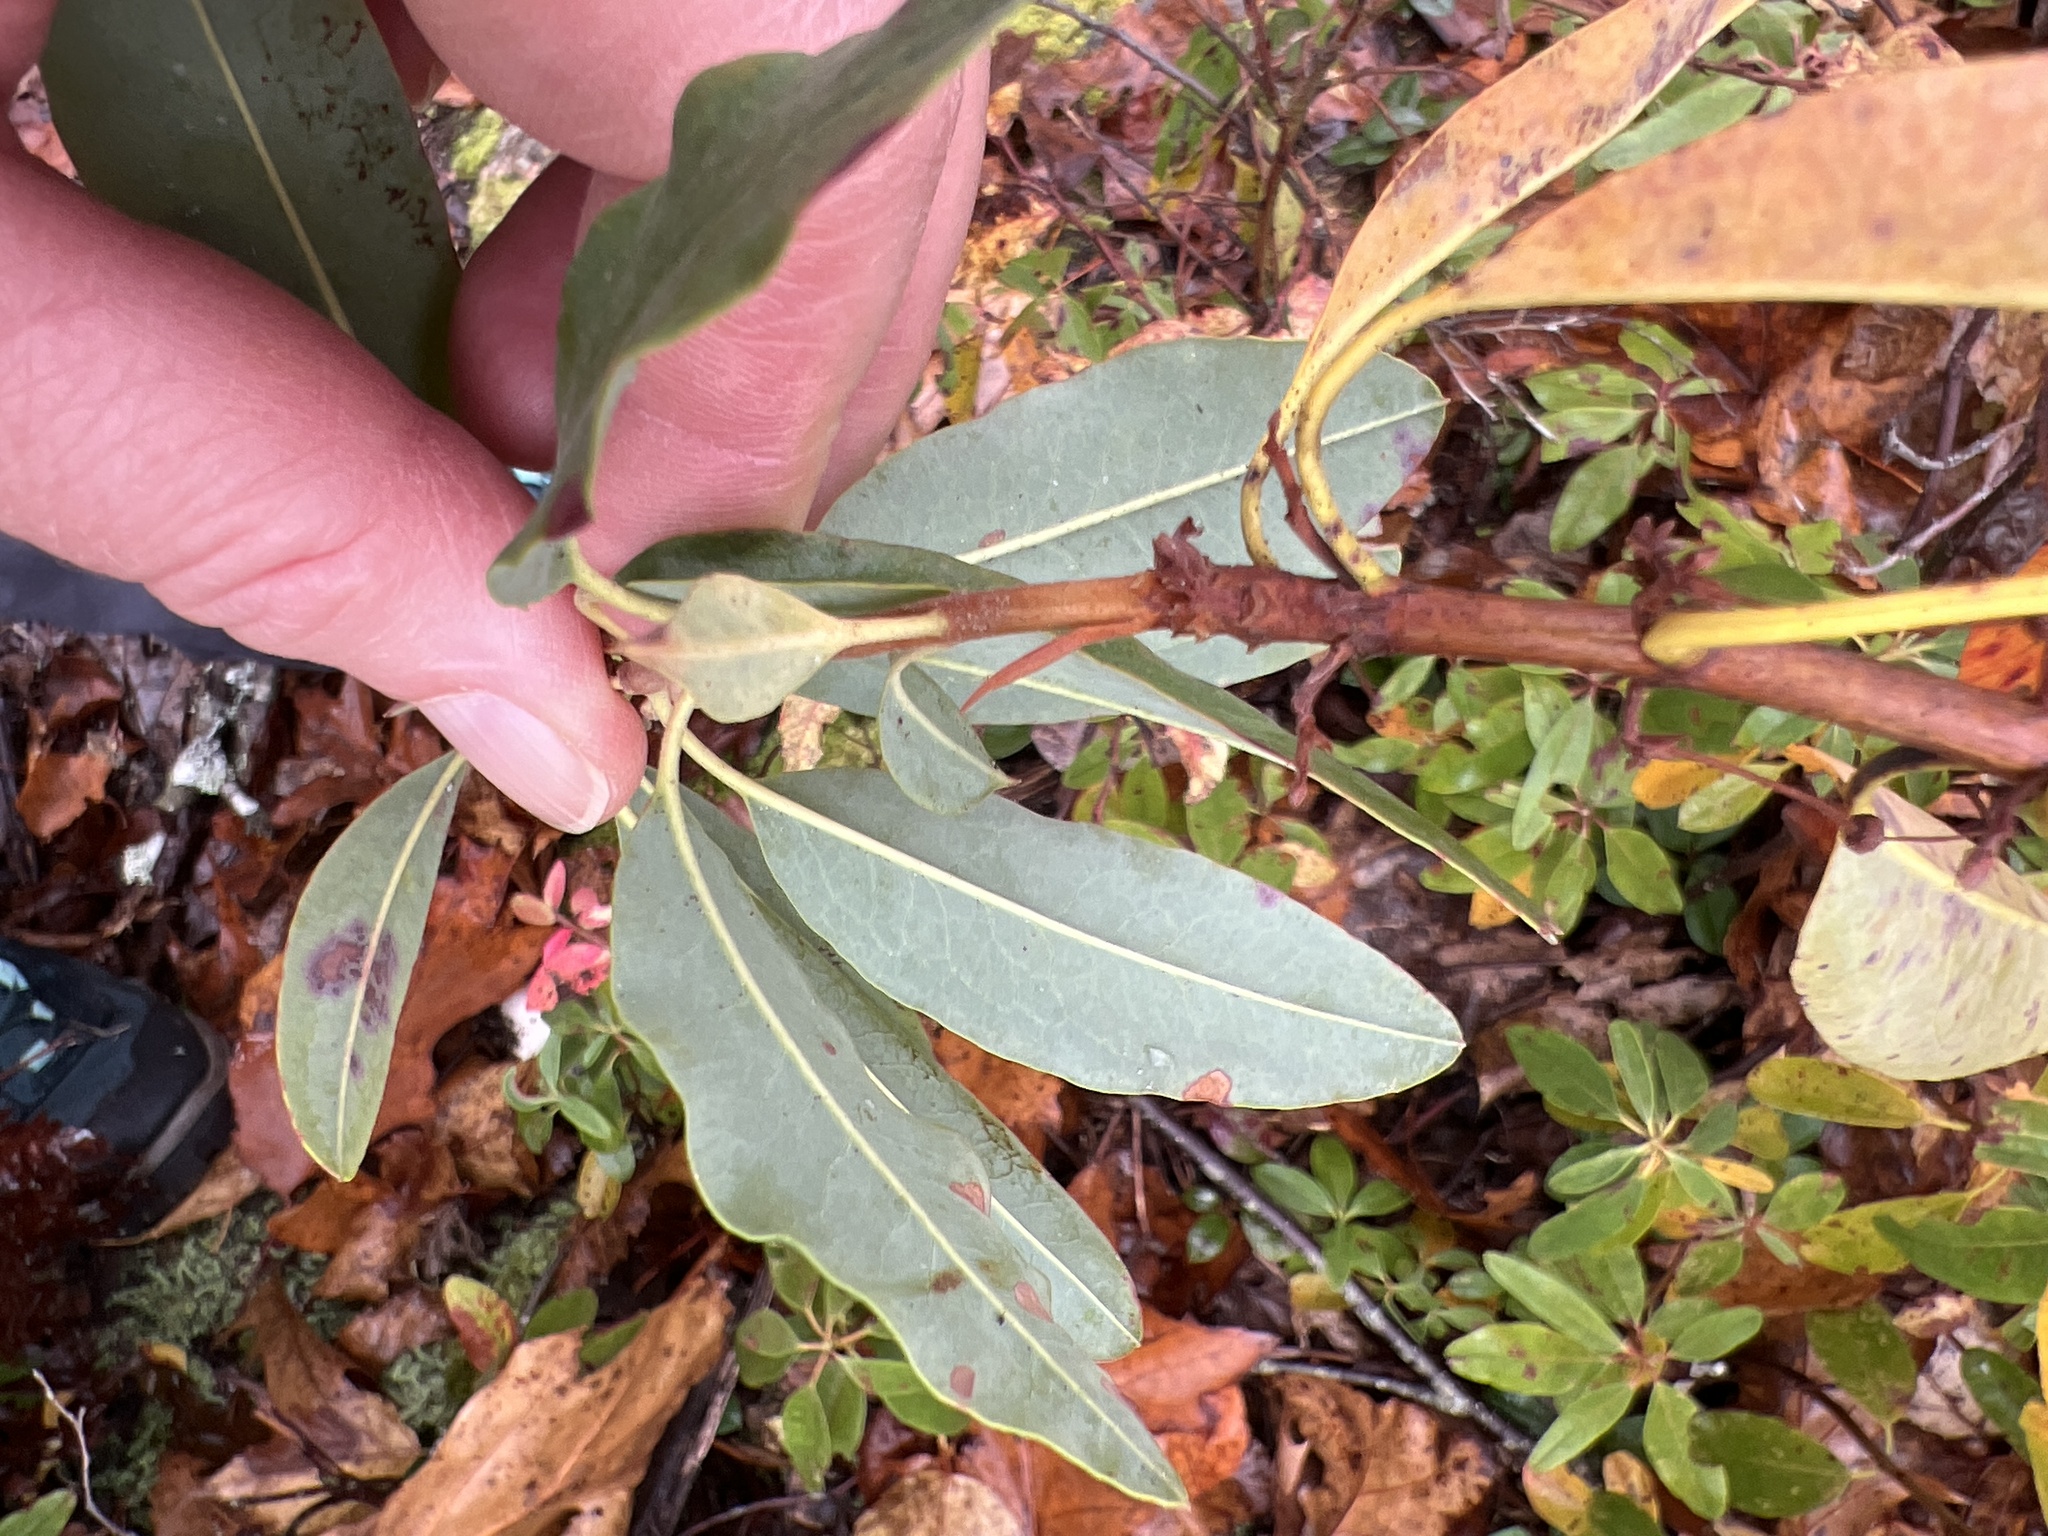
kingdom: Plantae
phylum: Tracheophyta
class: Magnoliopsida
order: Ericales
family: Ericaceae
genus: Kalmia
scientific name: Kalmia angustifolia
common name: Sheep-laurel
